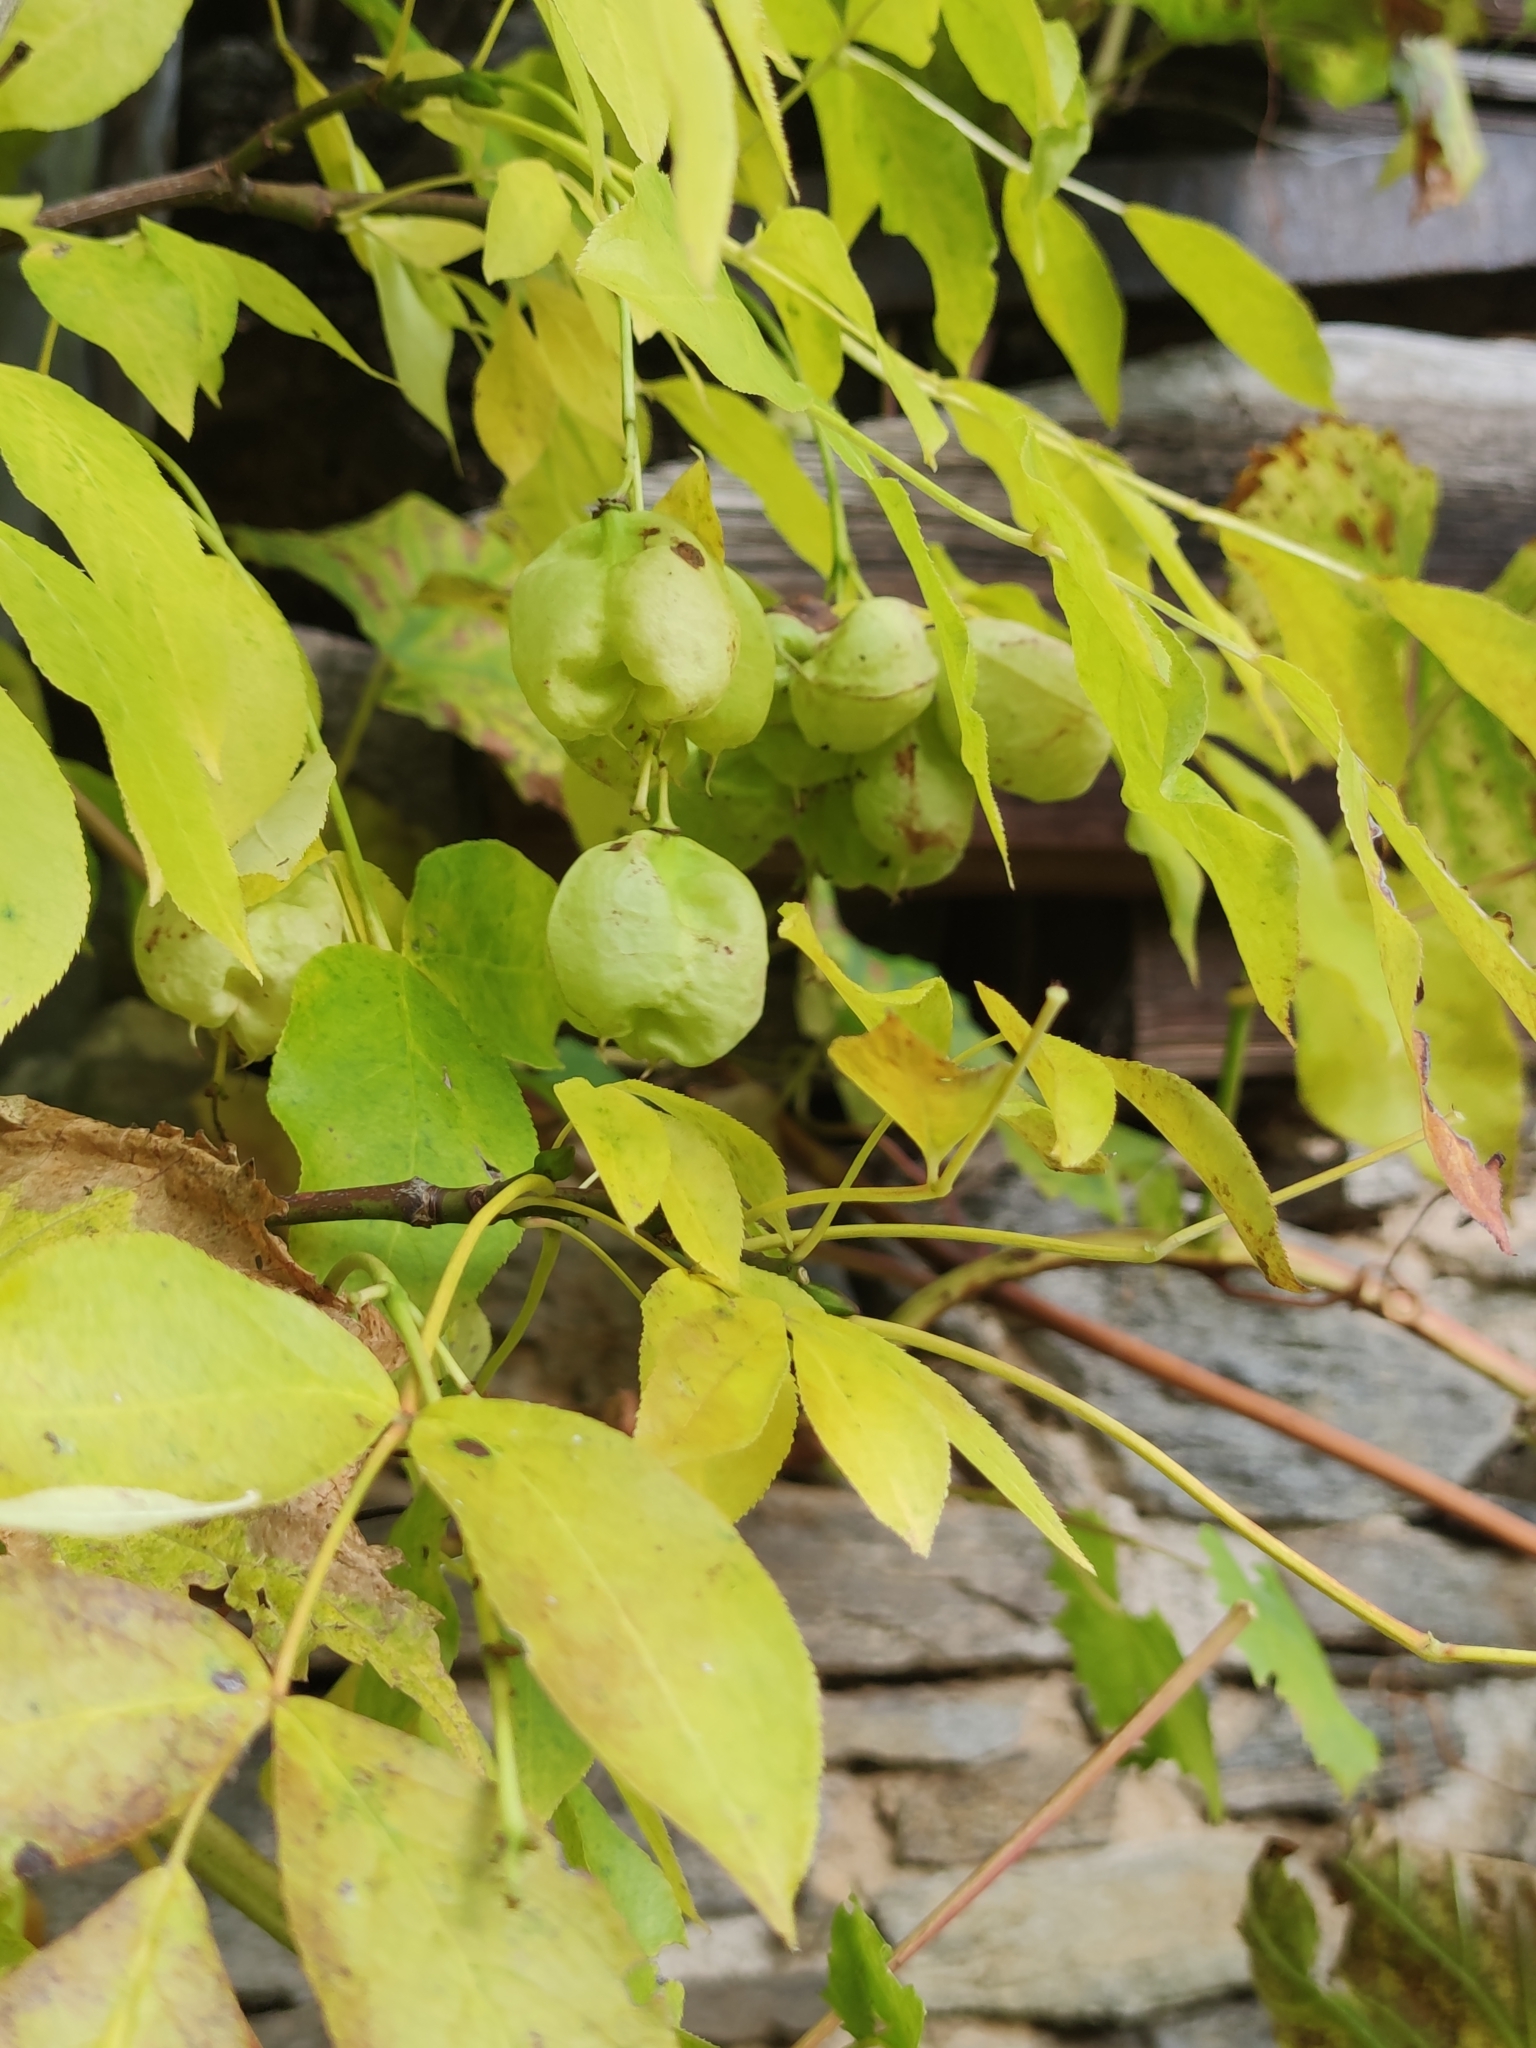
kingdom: Plantae
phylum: Tracheophyta
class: Magnoliopsida
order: Crossosomatales
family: Staphyleaceae
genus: Staphylea
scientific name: Staphylea pinnata
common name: Bladdernut
